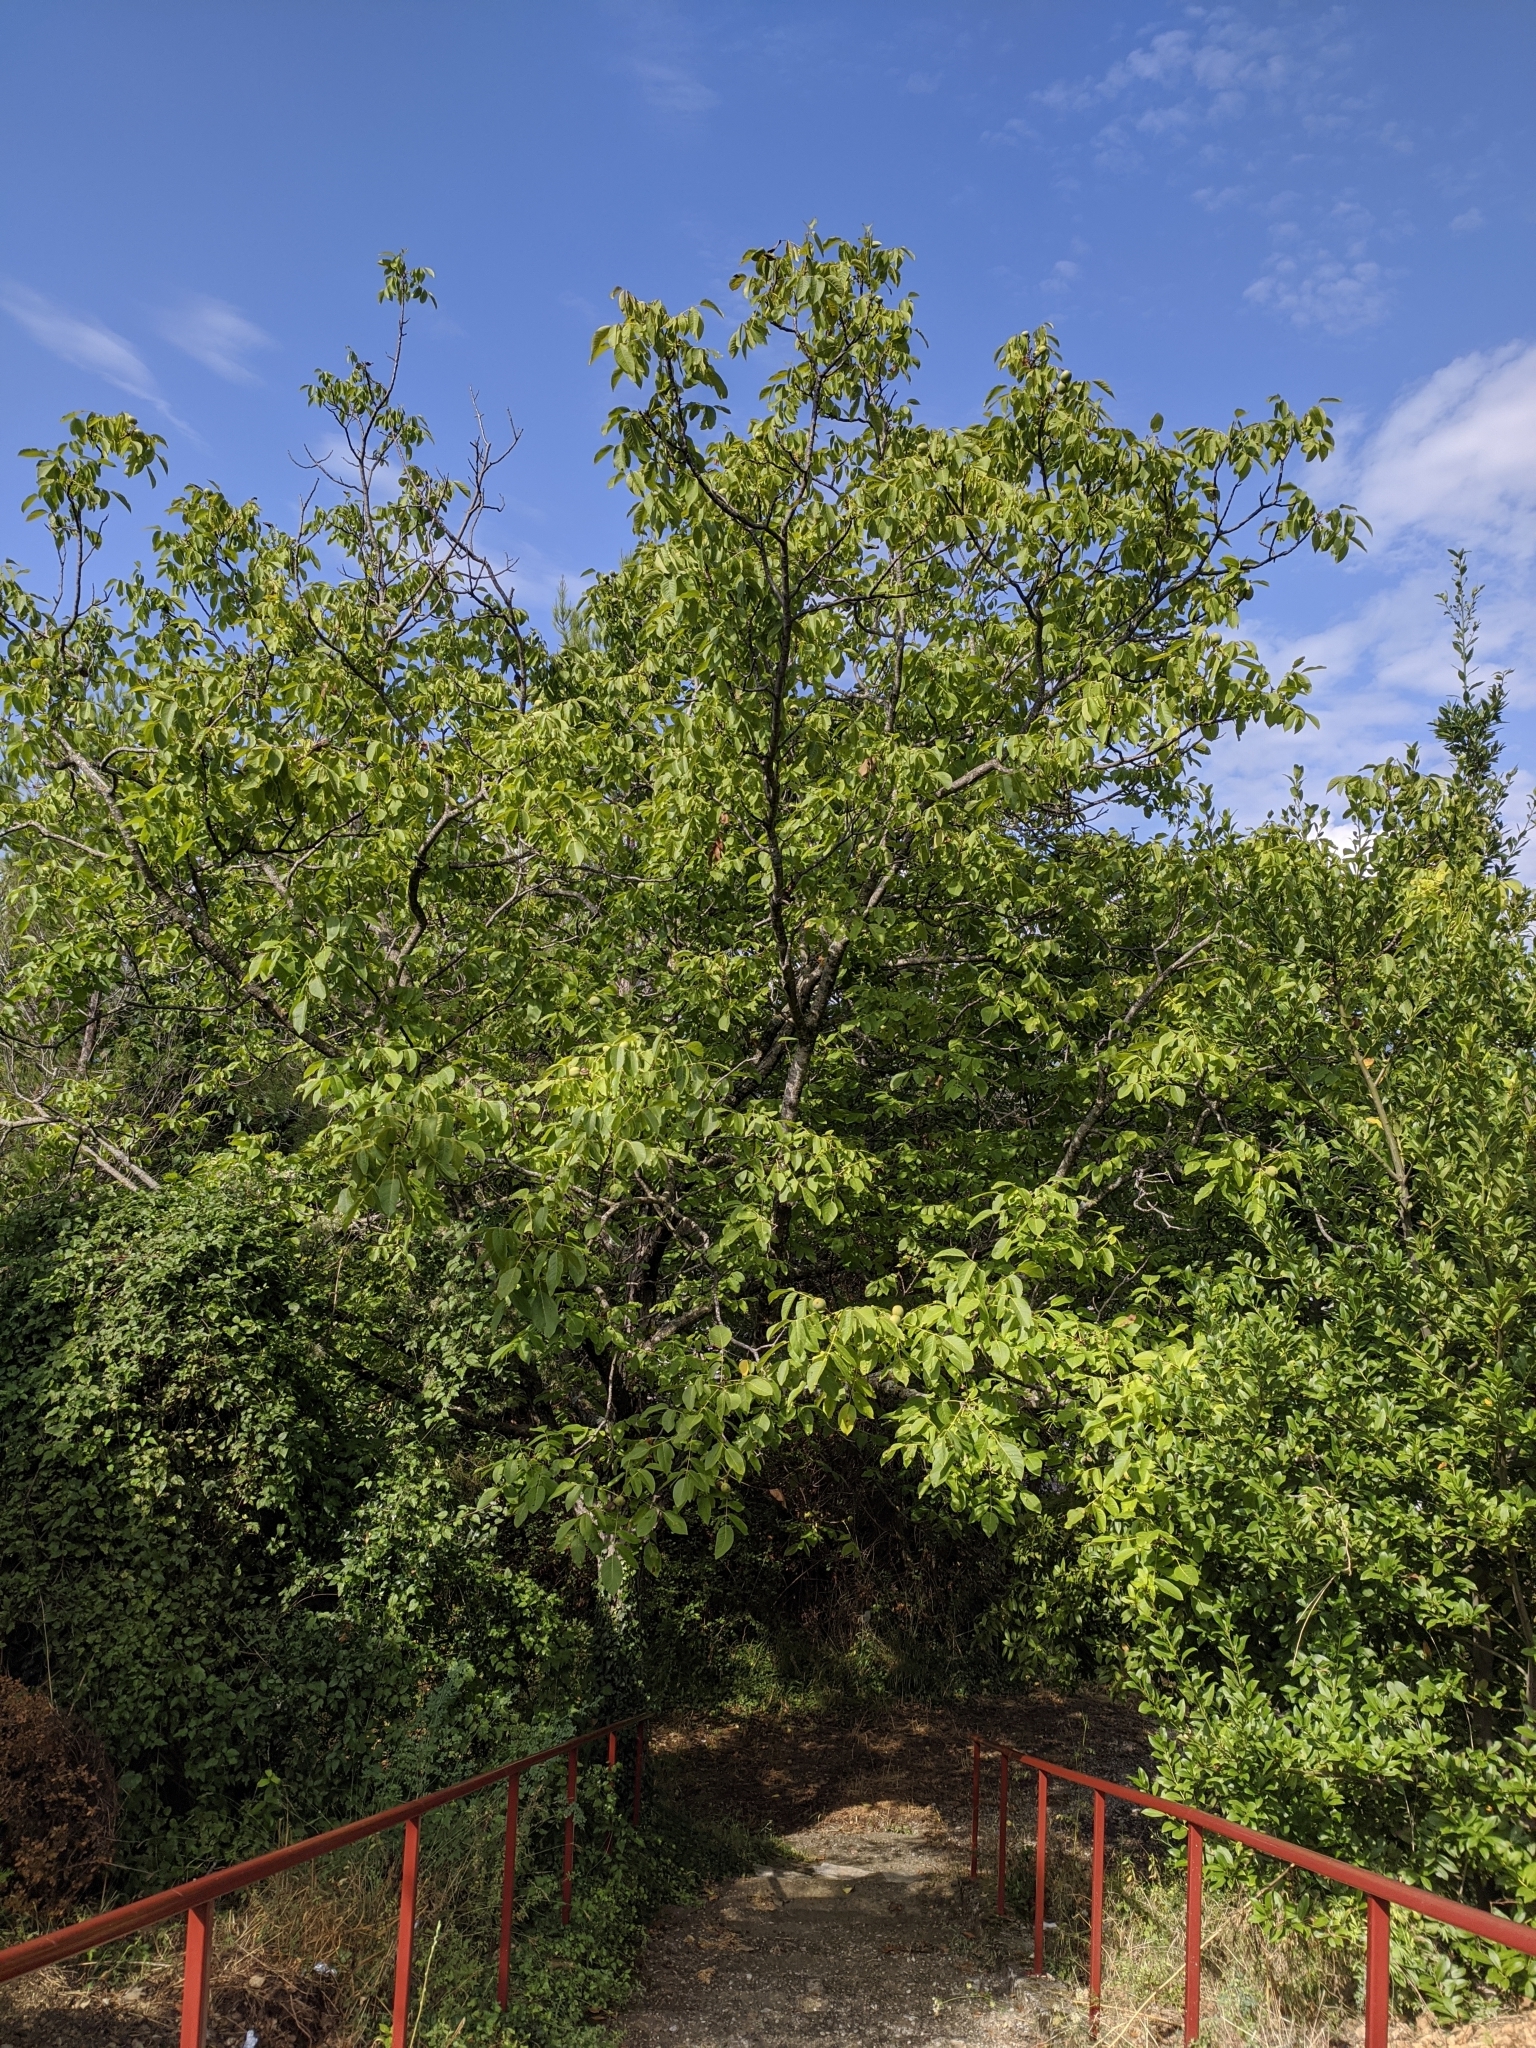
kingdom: Plantae
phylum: Tracheophyta
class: Magnoliopsida
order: Fagales
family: Juglandaceae
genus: Juglans
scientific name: Juglans regia
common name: Walnut
